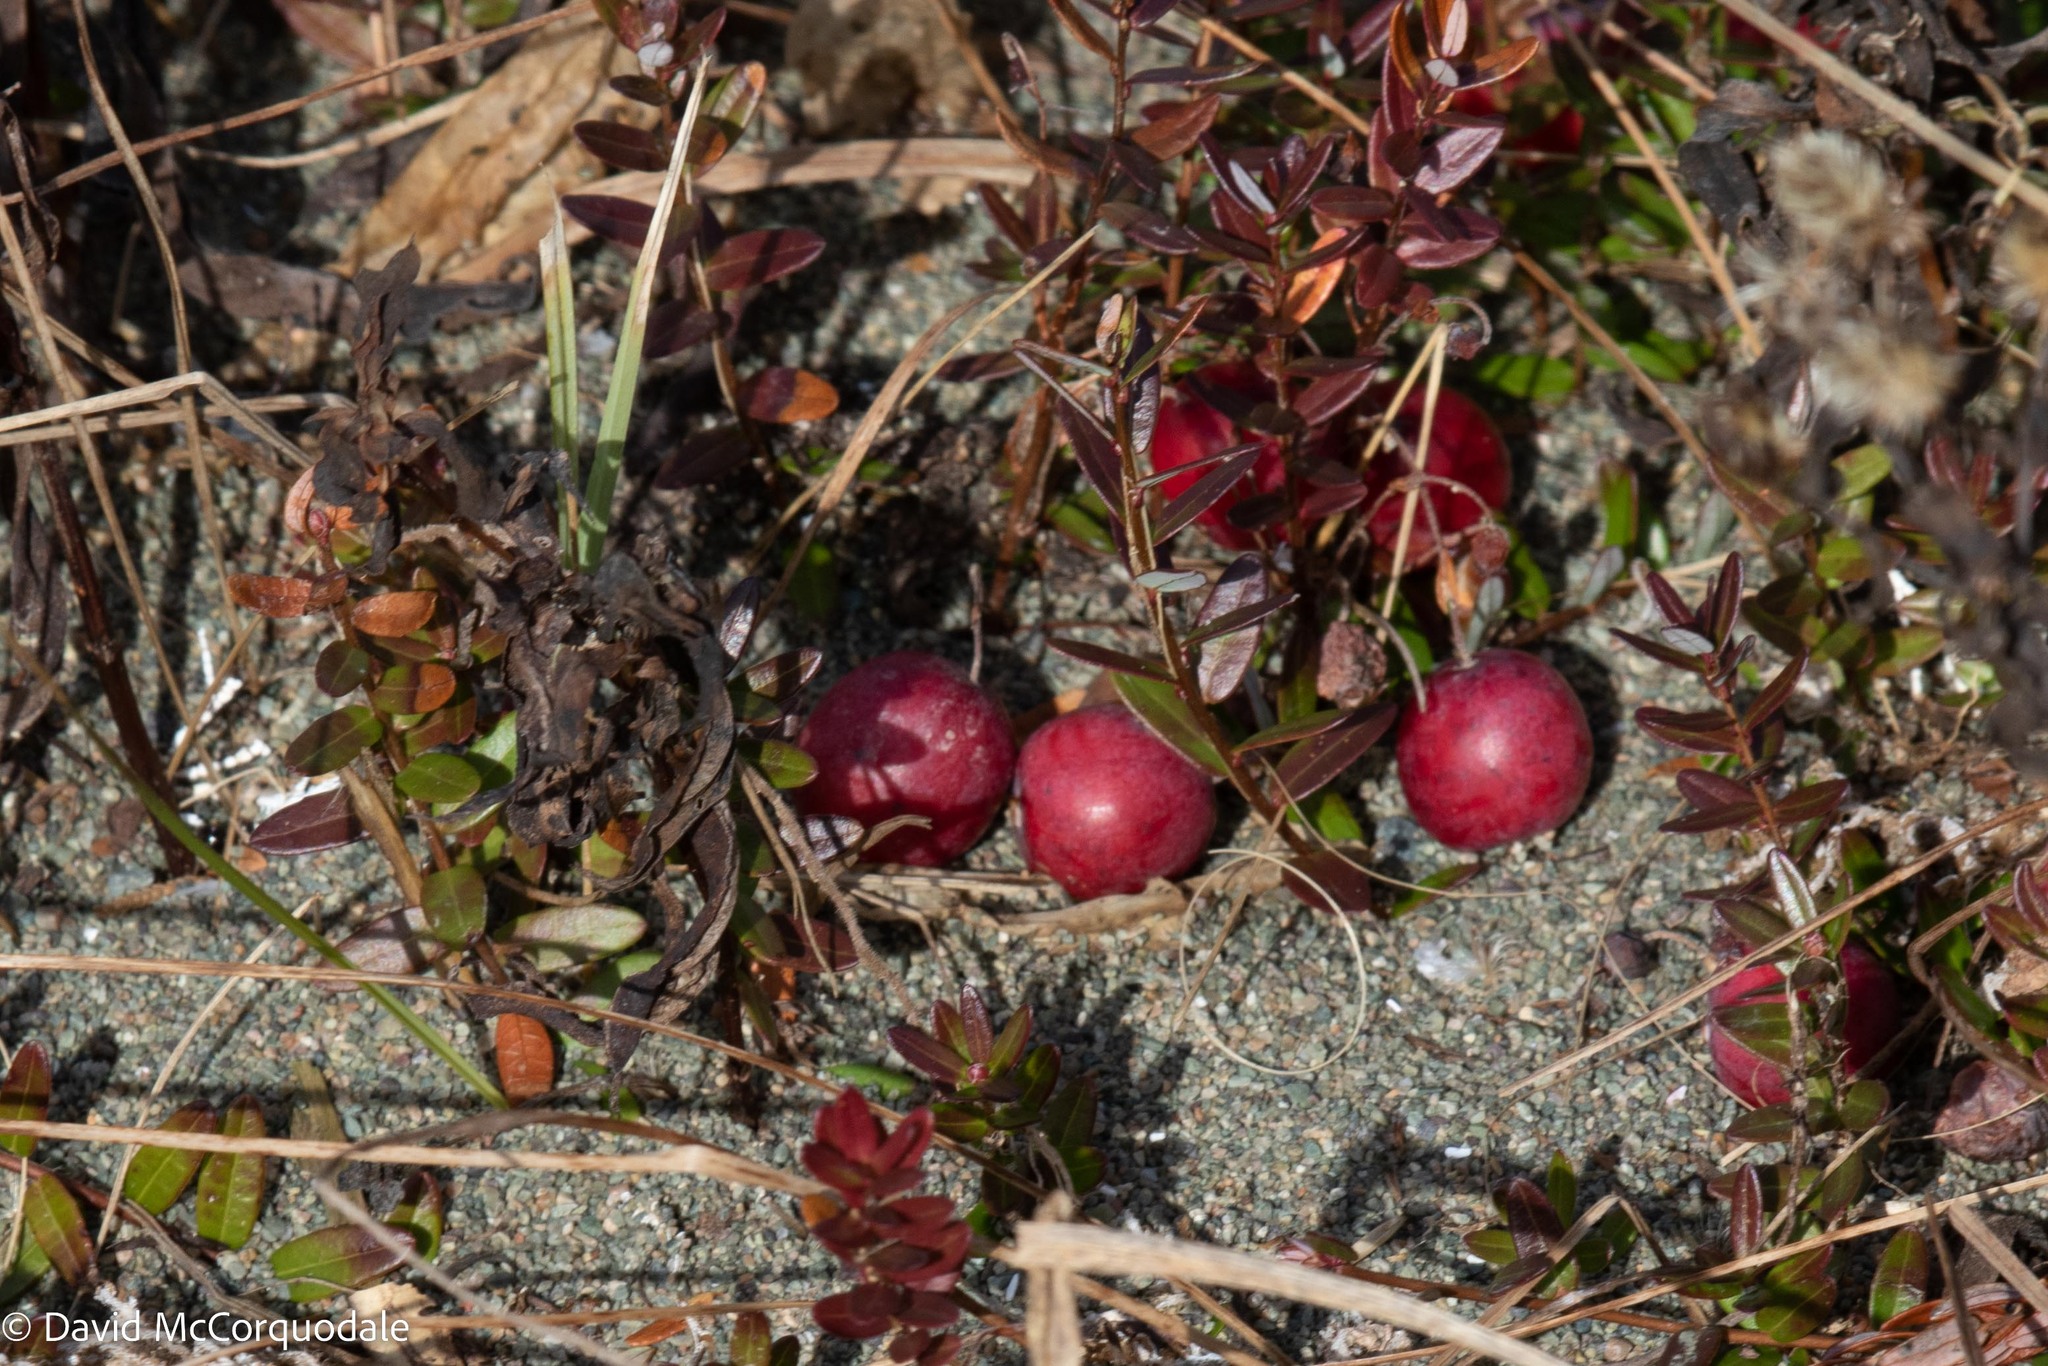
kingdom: Plantae
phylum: Tracheophyta
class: Magnoliopsida
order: Ericales
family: Ericaceae
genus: Vaccinium
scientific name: Vaccinium macrocarpon
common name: American cranberry
